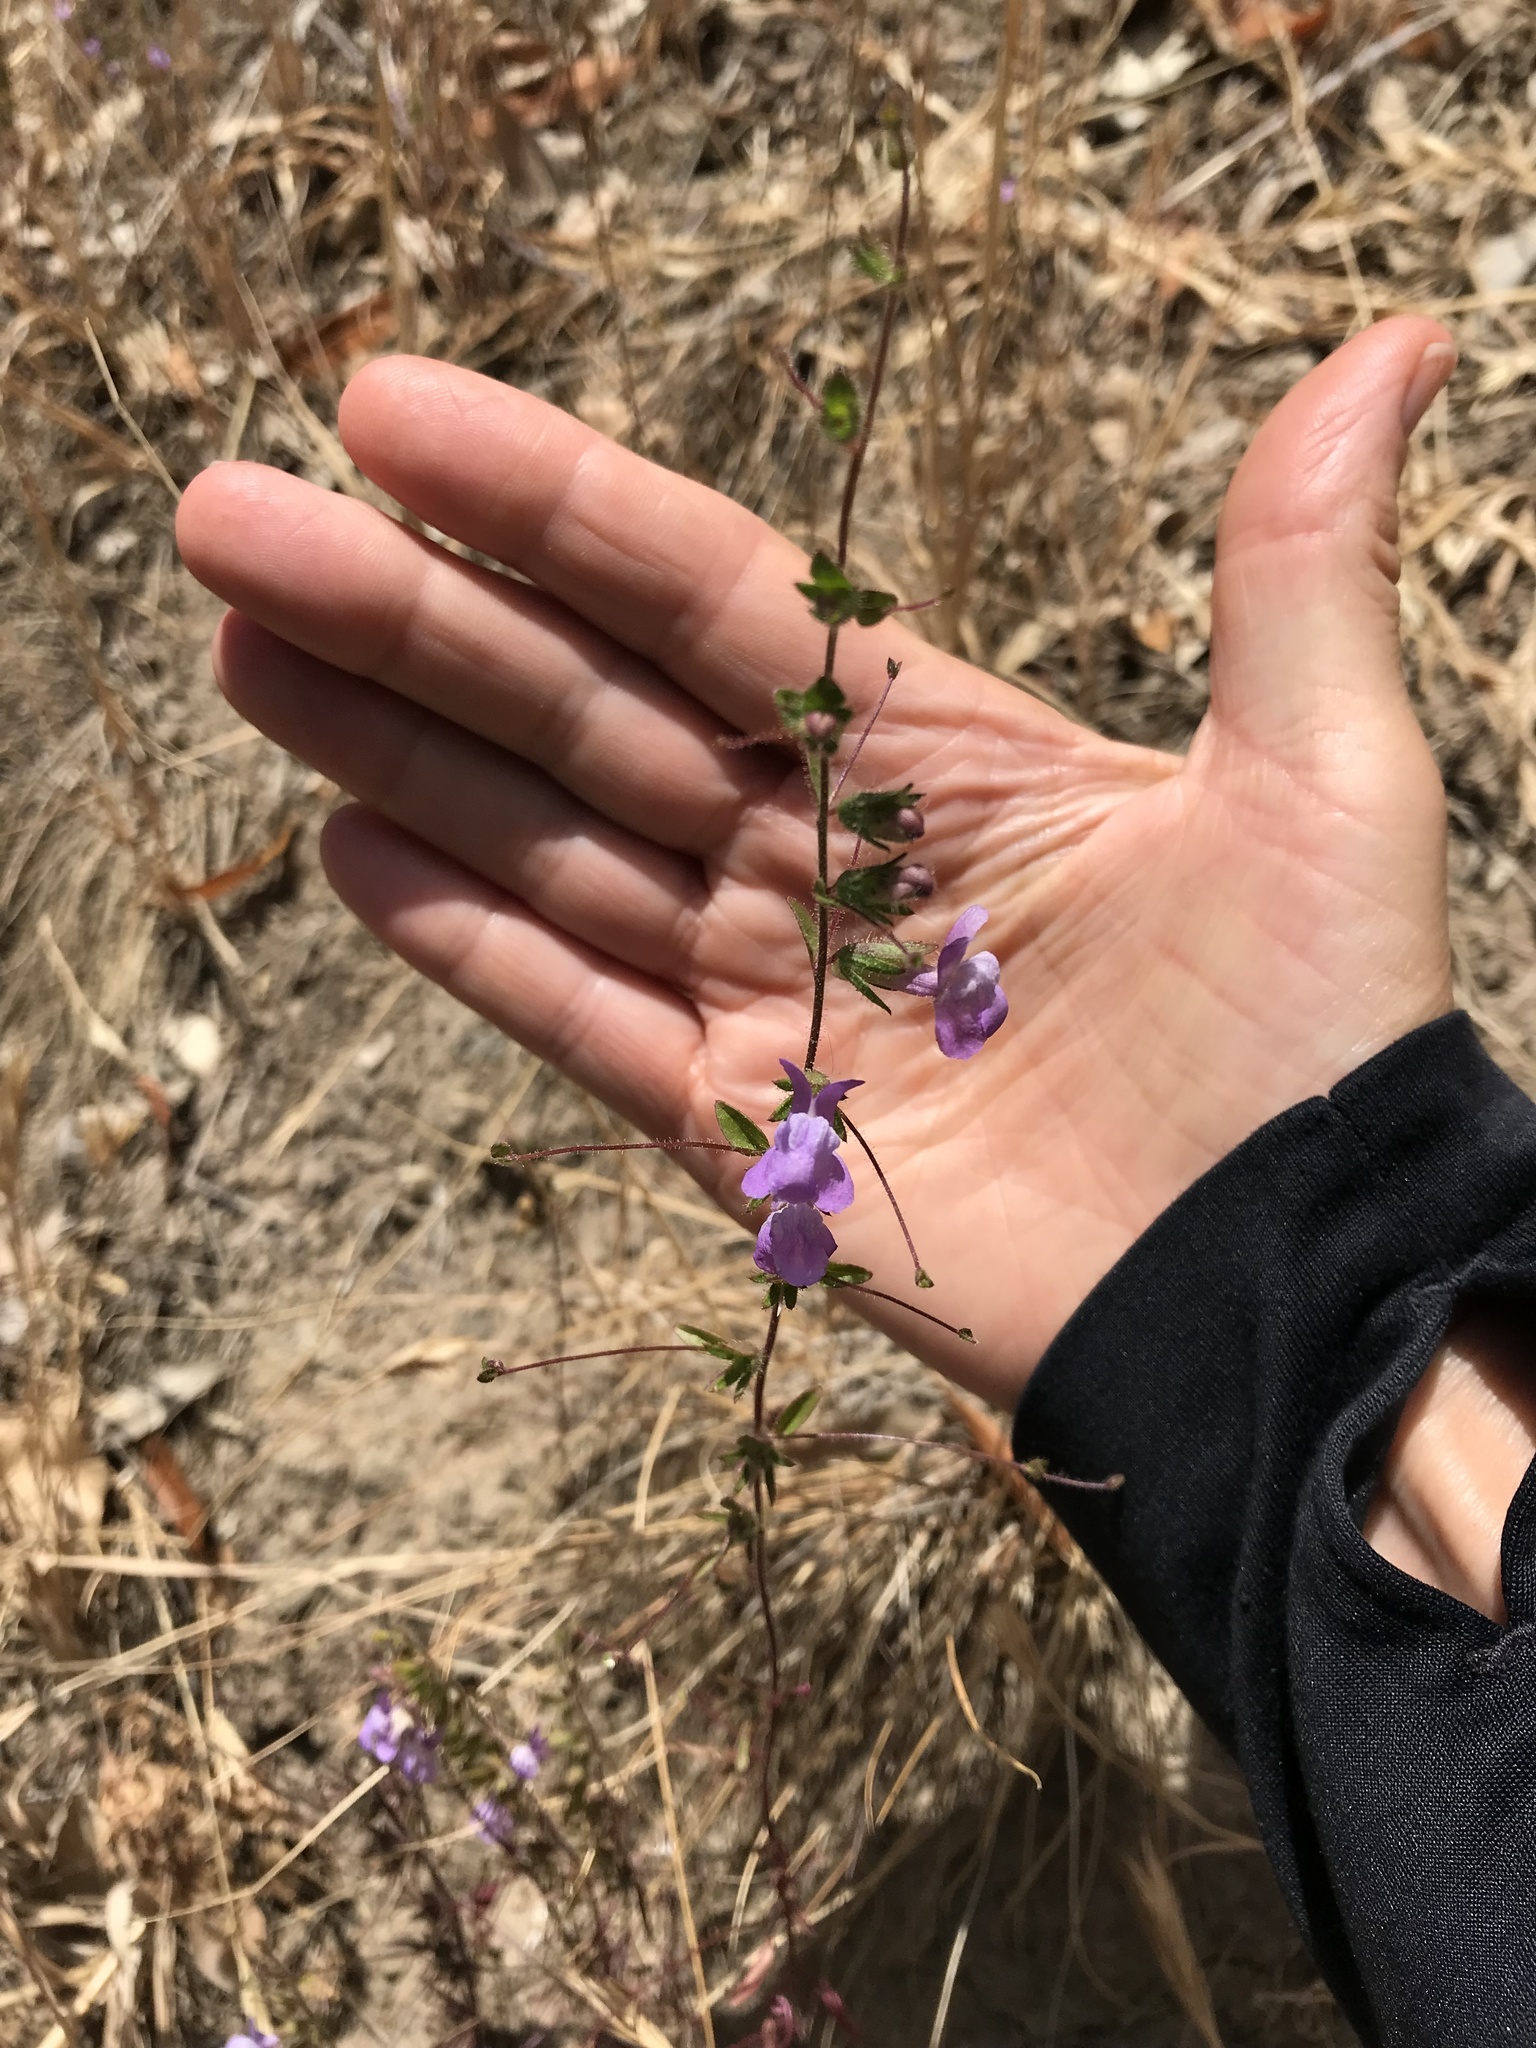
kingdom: Plantae
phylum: Tracheophyta
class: Magnoliopsida
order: Lamiales
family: Plantaginaceae
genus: Sairocarpus
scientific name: Sairocarpus vexillocalyculatus
